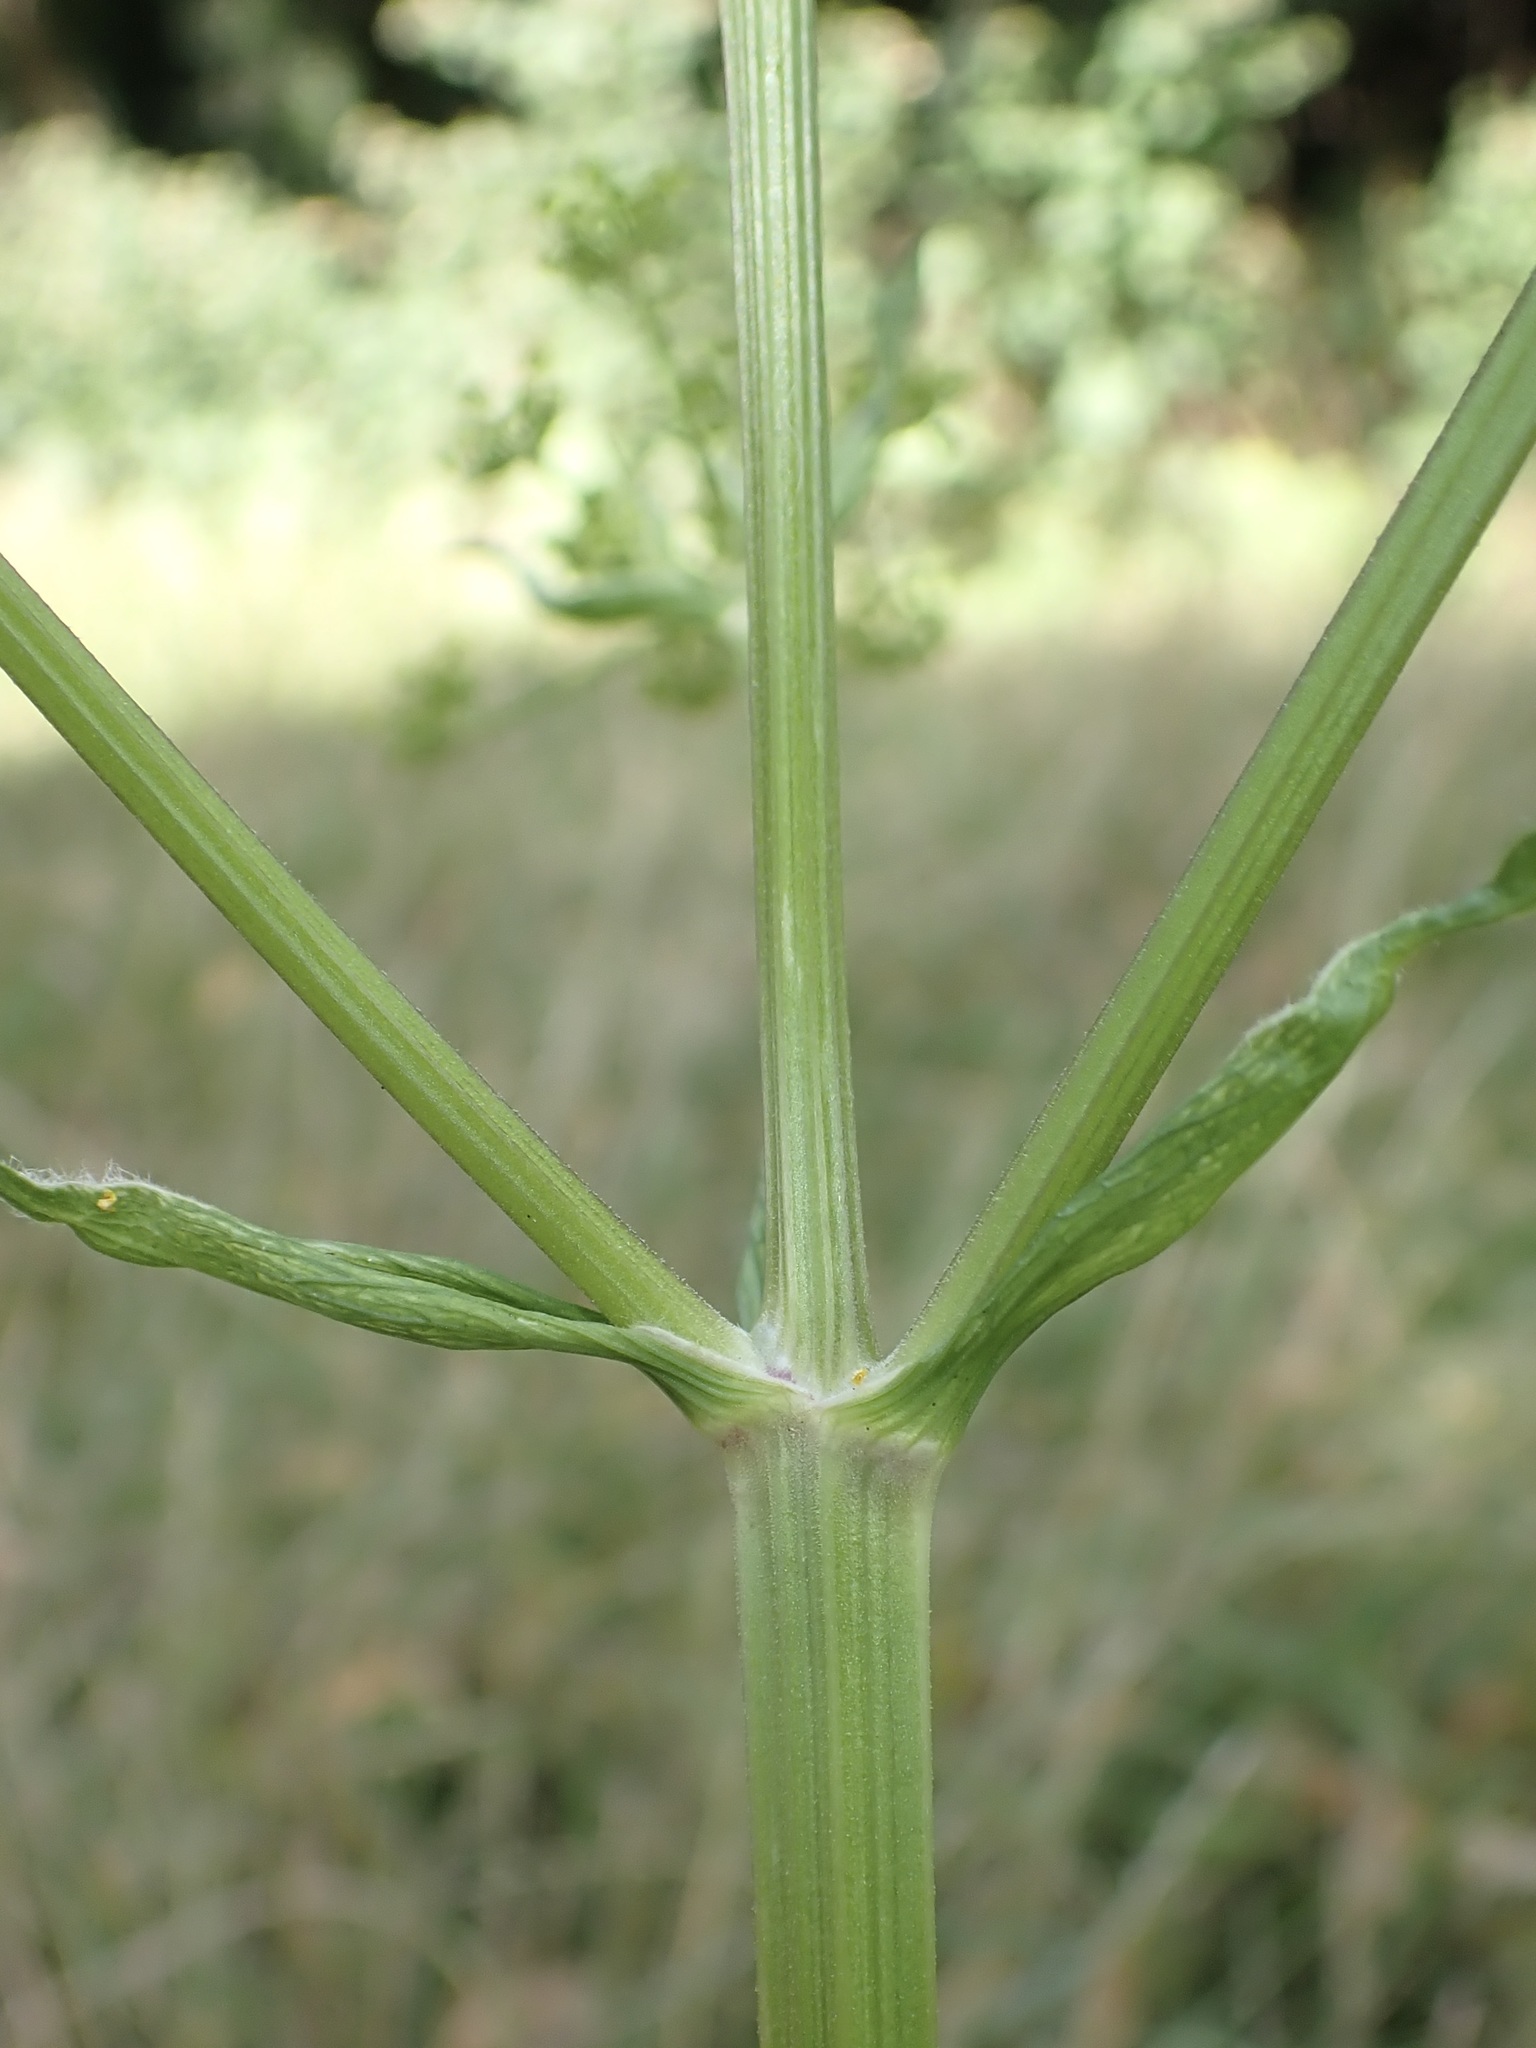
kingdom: Plantae
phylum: Tracheophyta
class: Magnoliopsida
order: Apiales
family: Apiaceae
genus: Pastinaca
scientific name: Pastinaca sativa
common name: Wild parsnip
